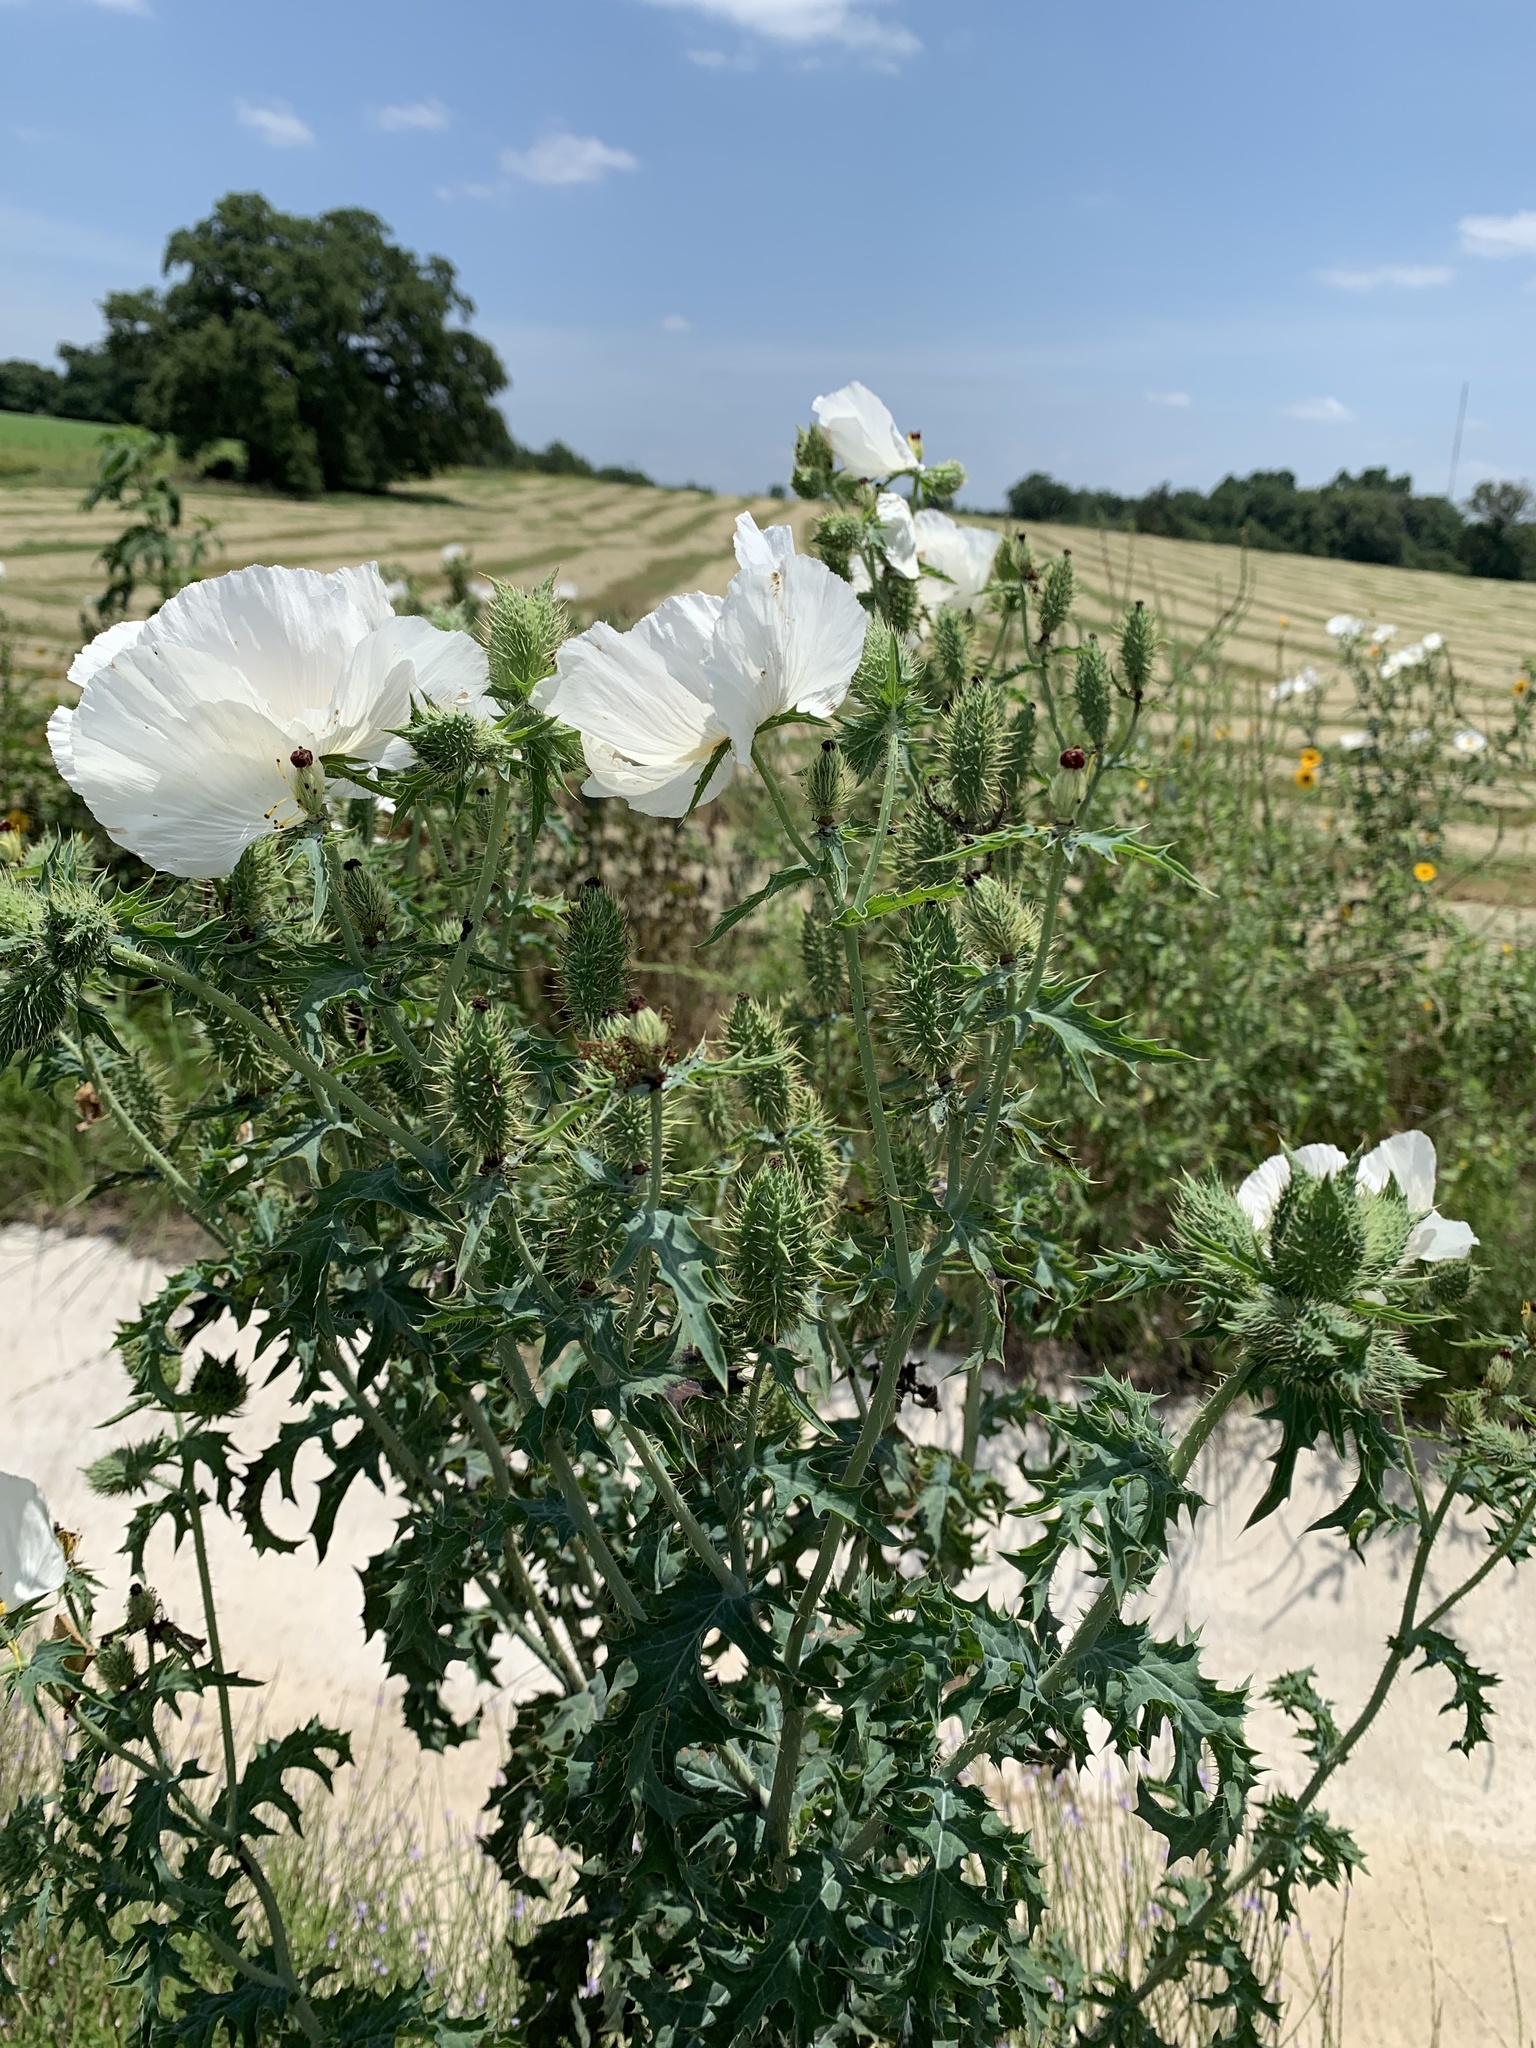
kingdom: Plantae
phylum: Tracheophyta
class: Magnoliopsida
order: Ranunculales
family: Papaveraceae
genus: Argemone
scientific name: Argemone albiflora
